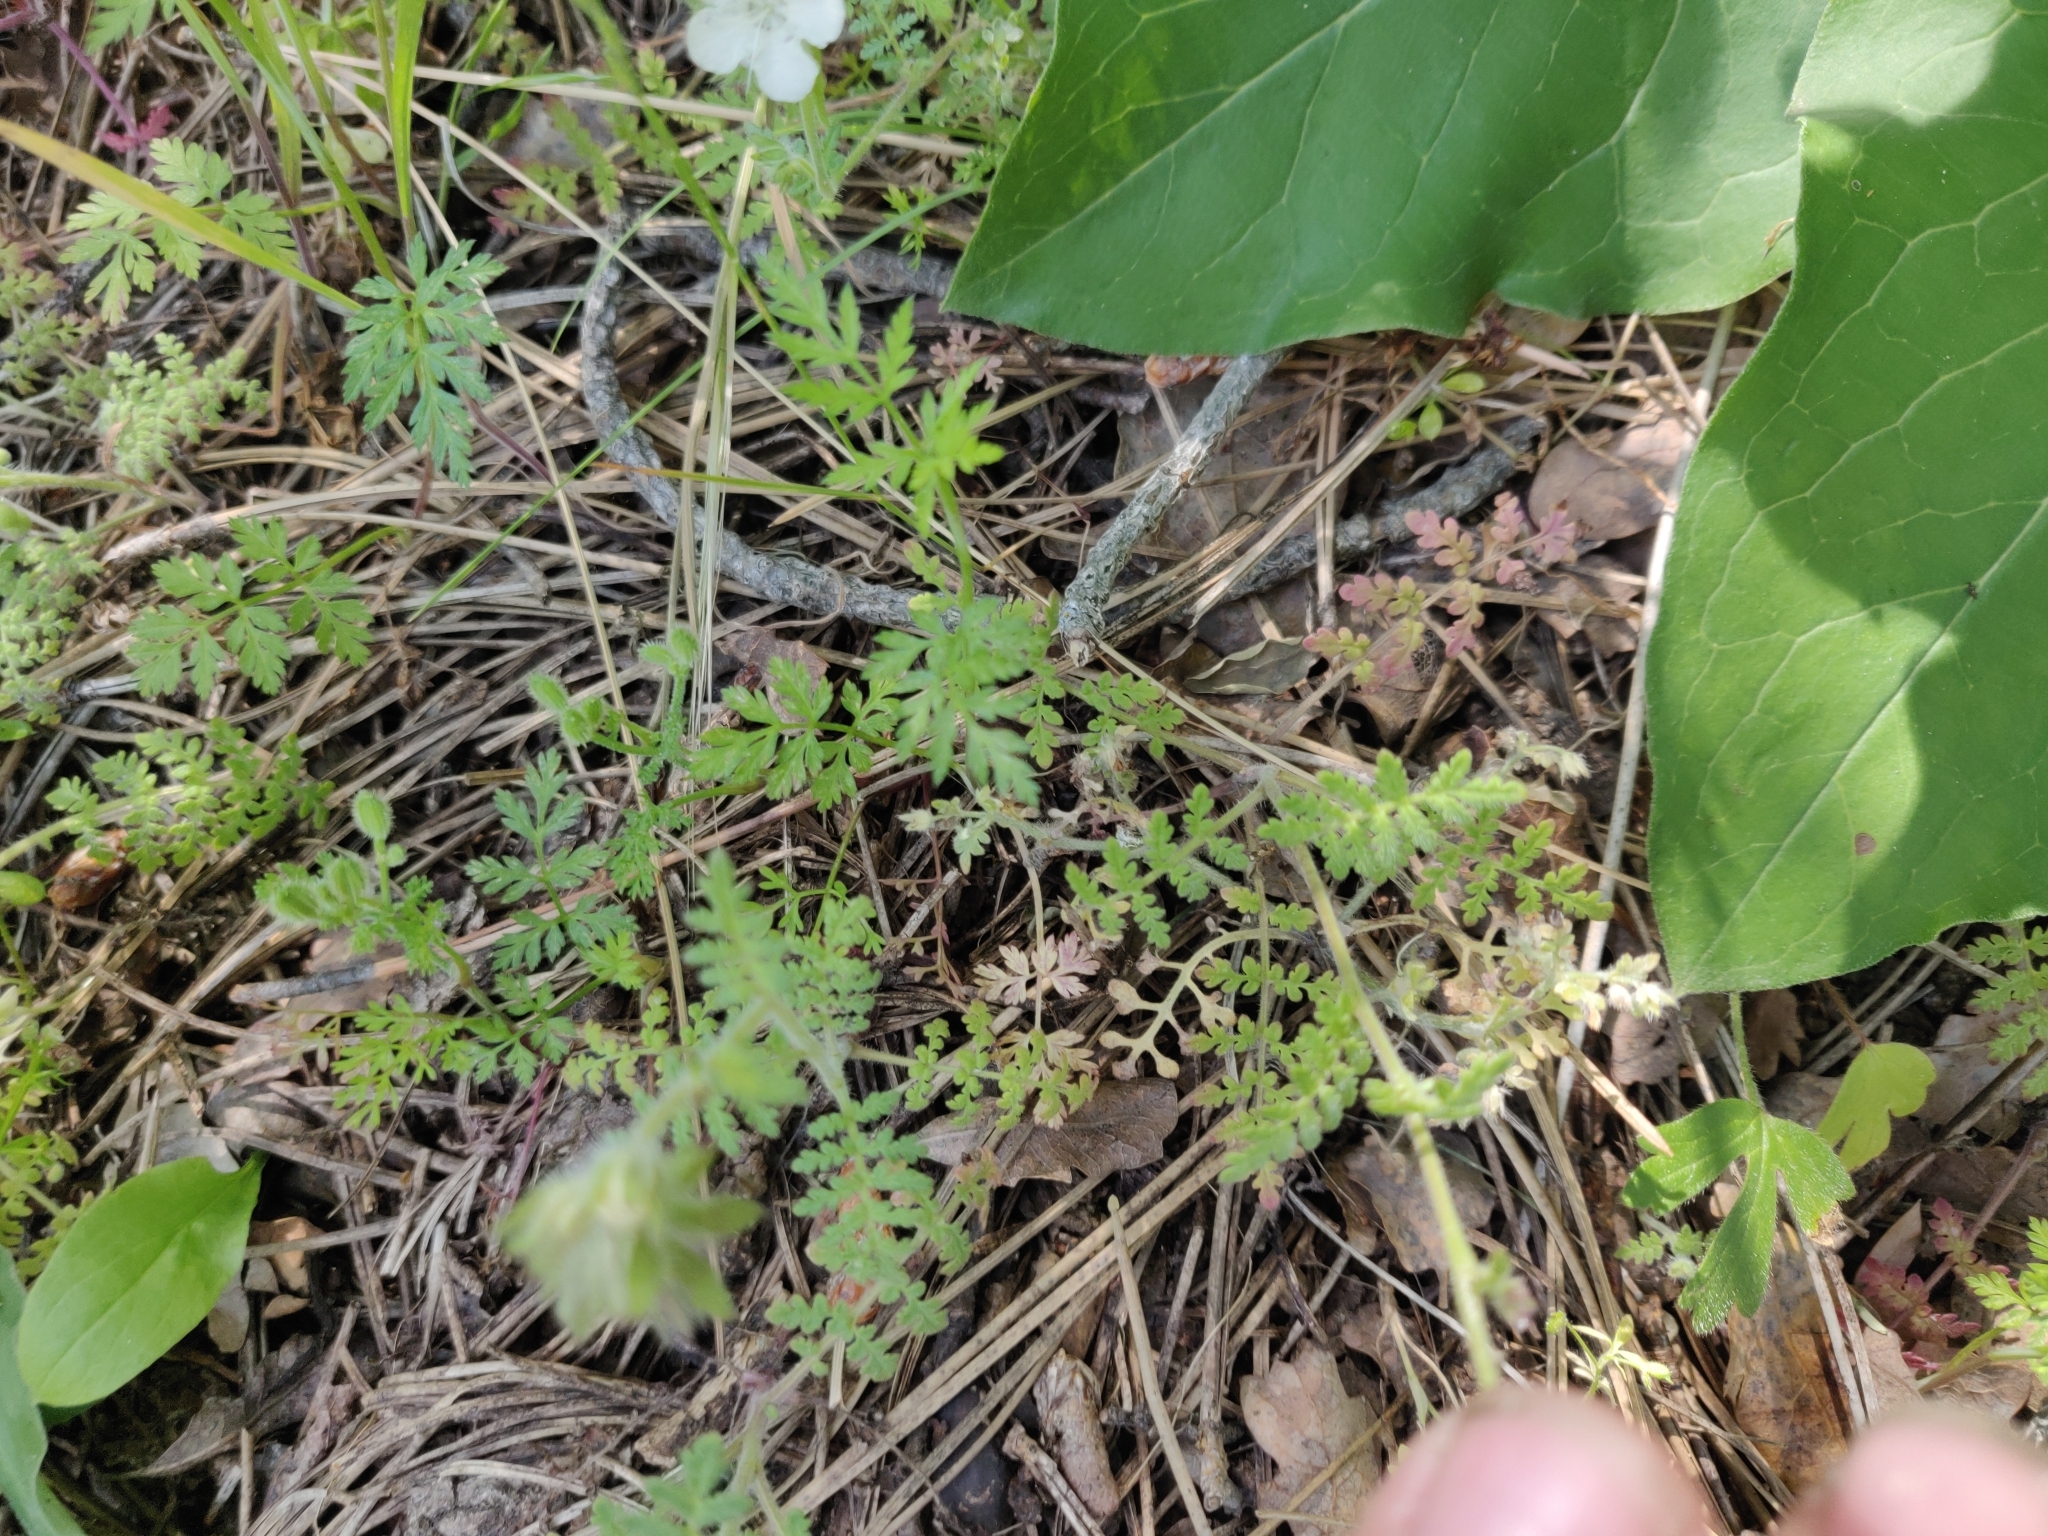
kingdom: Plantae
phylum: Tracheophyta
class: Magnoliopsida
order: Boraginales
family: Hydrophyllaceae
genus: Phacelia
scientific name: Phacelia distans
